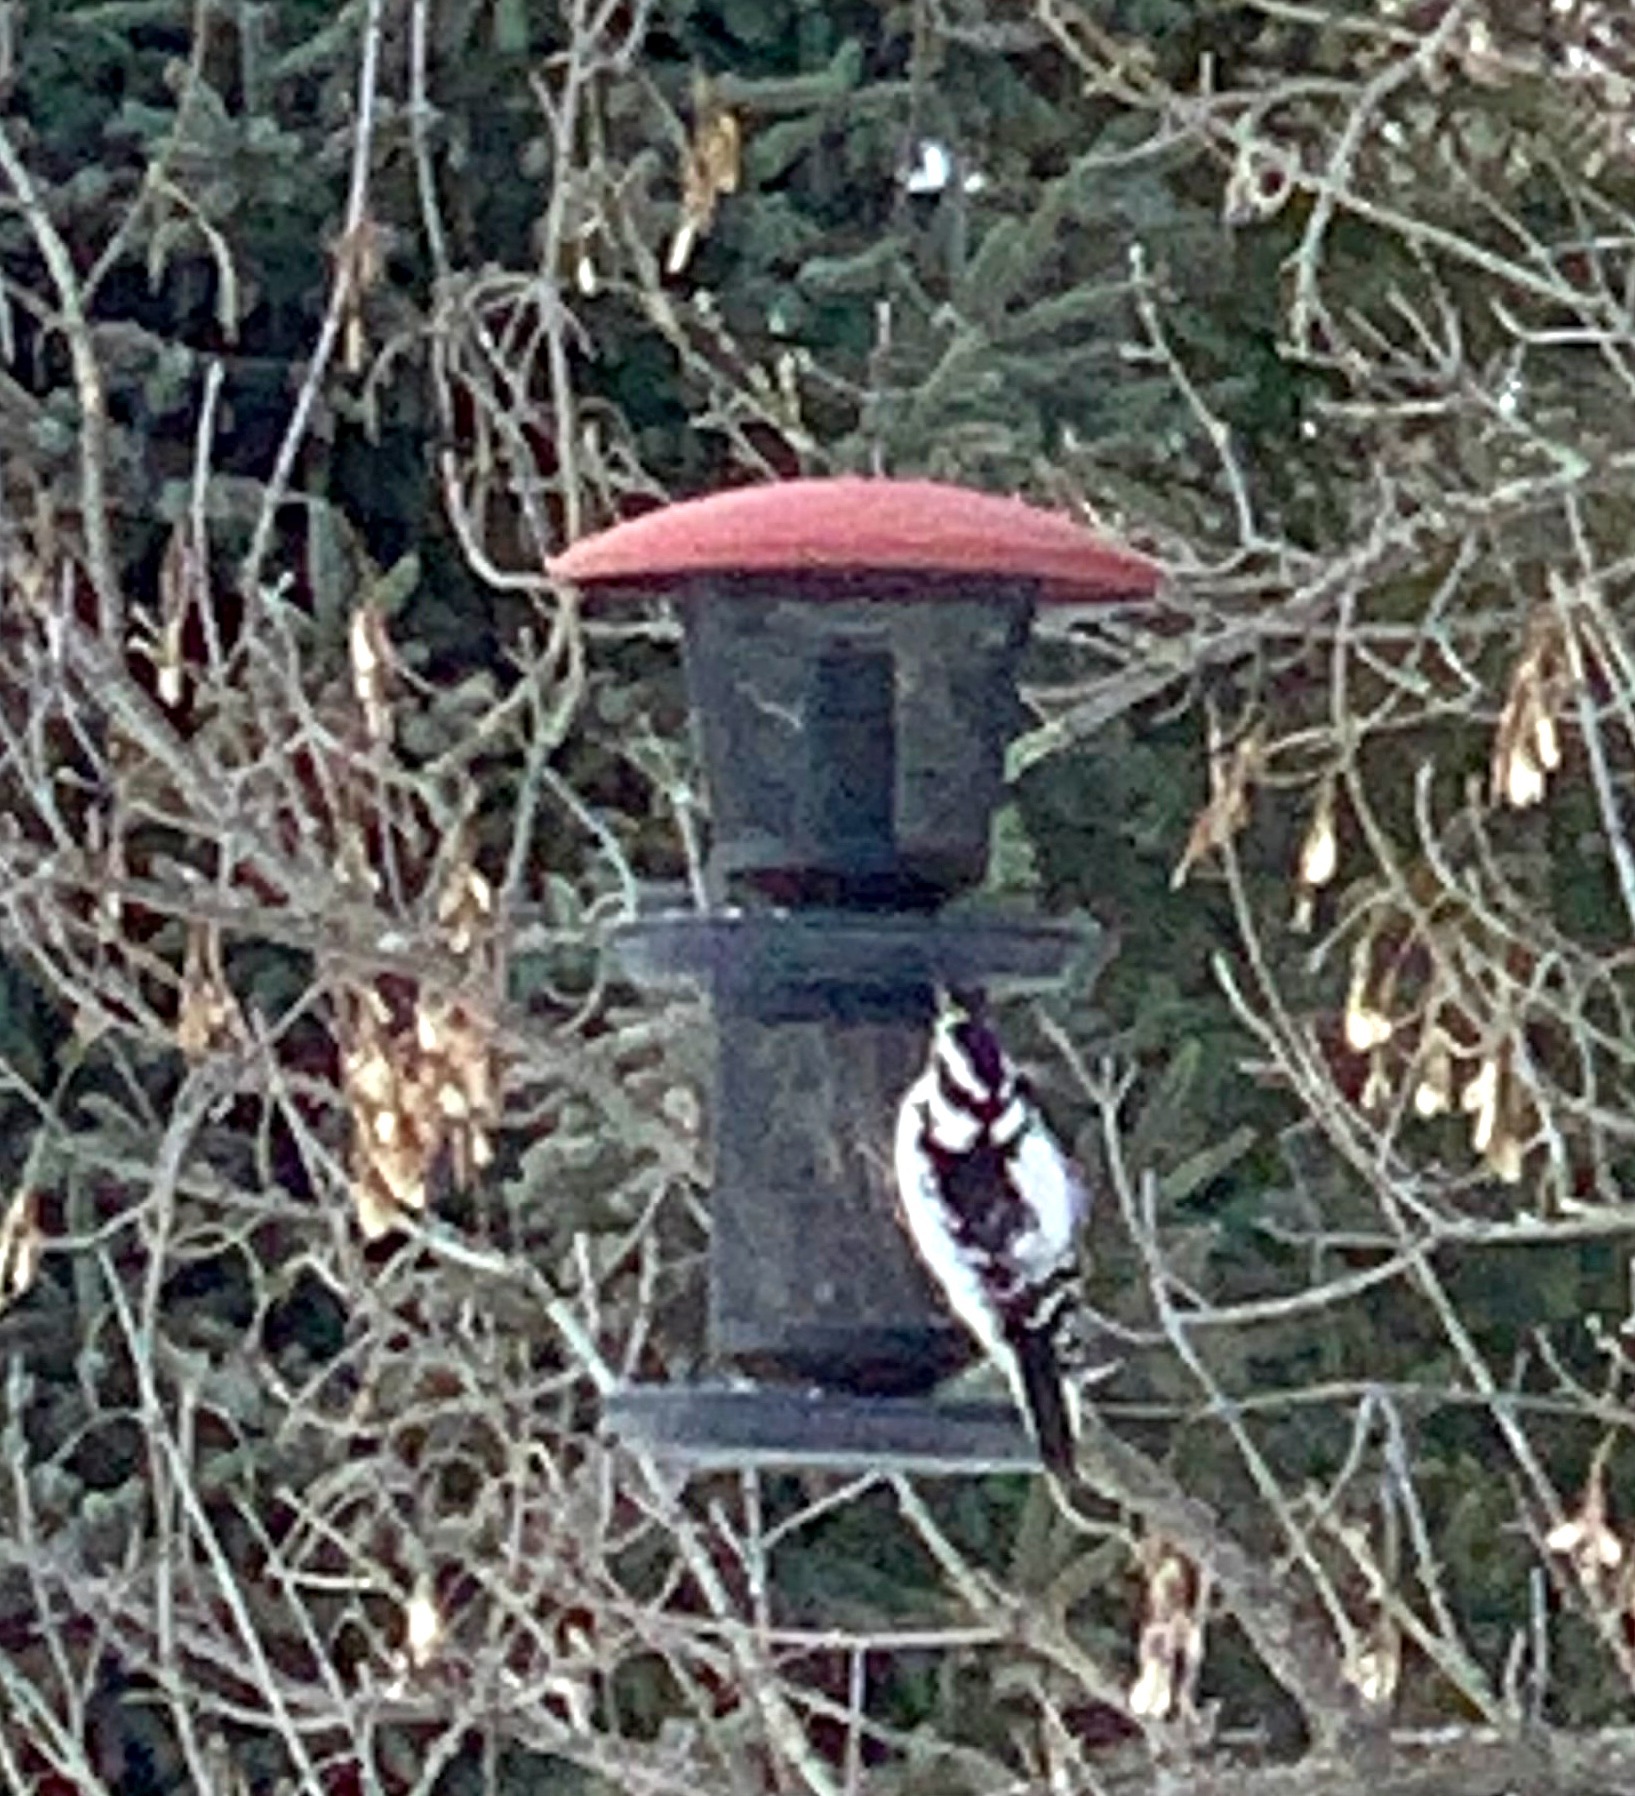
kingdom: Animalia
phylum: Chordata
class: Aves
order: Piciformes
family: Picidae
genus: Leuconotopicus
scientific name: Leuconotopicus villosus
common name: Hairy woodpecker
